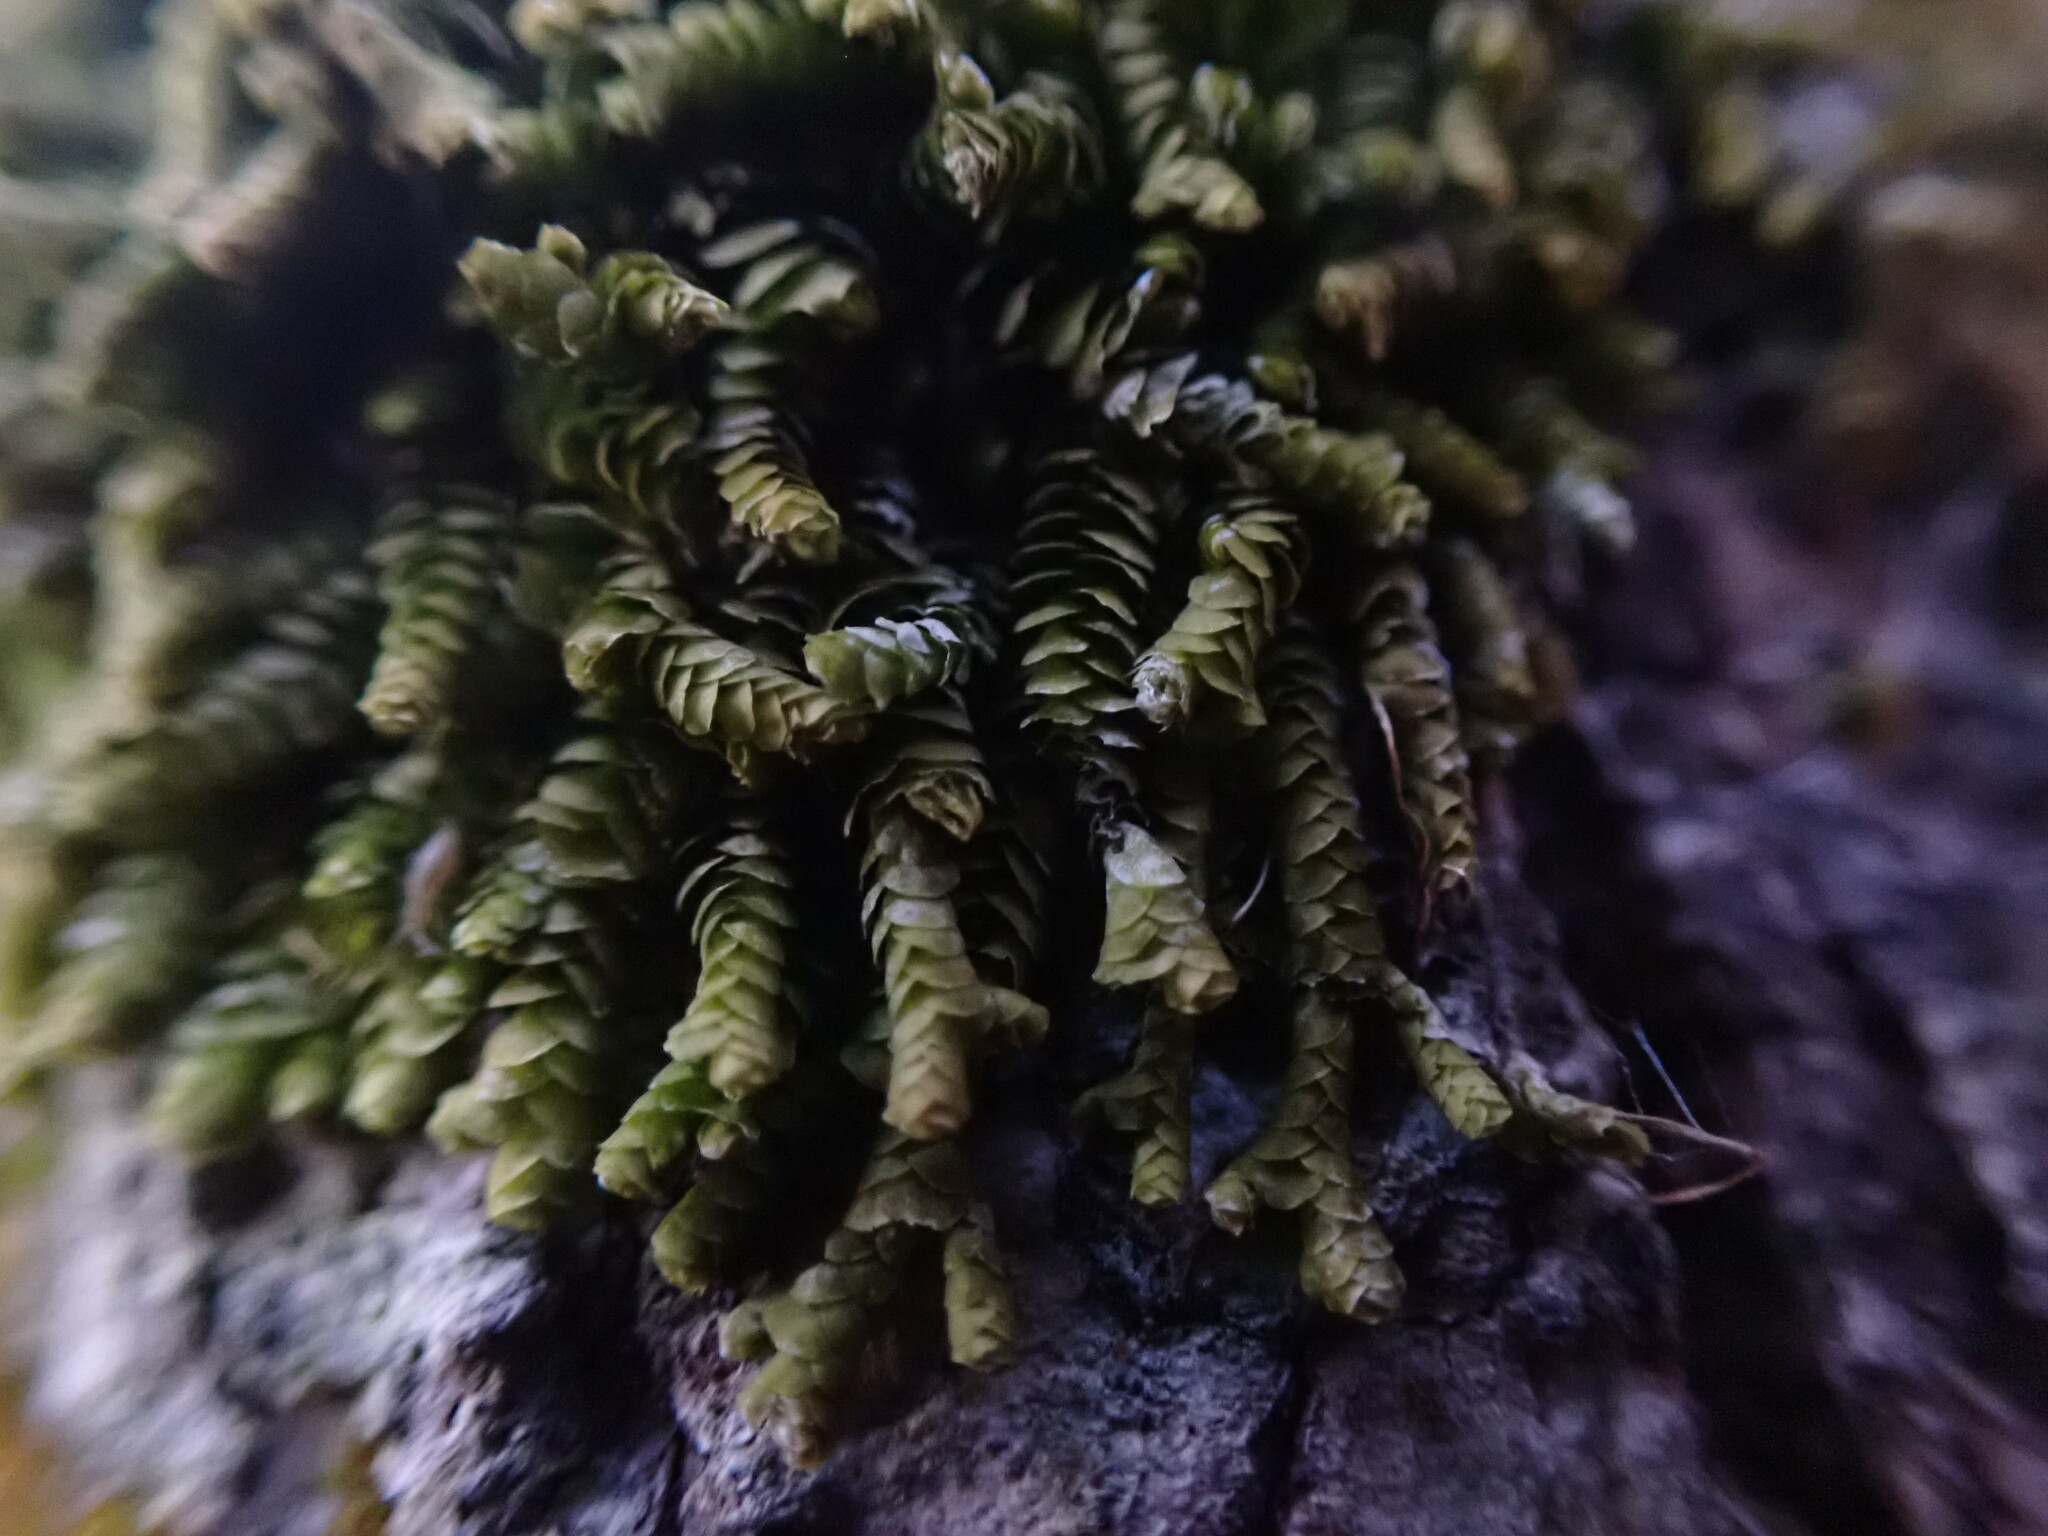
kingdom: Plantae
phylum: Marchantiophyta
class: Jungermanniopsida
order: Porellales
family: Lejeuneaceae
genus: Acrolejeunea
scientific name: Acrolejeunea sandvicensis
